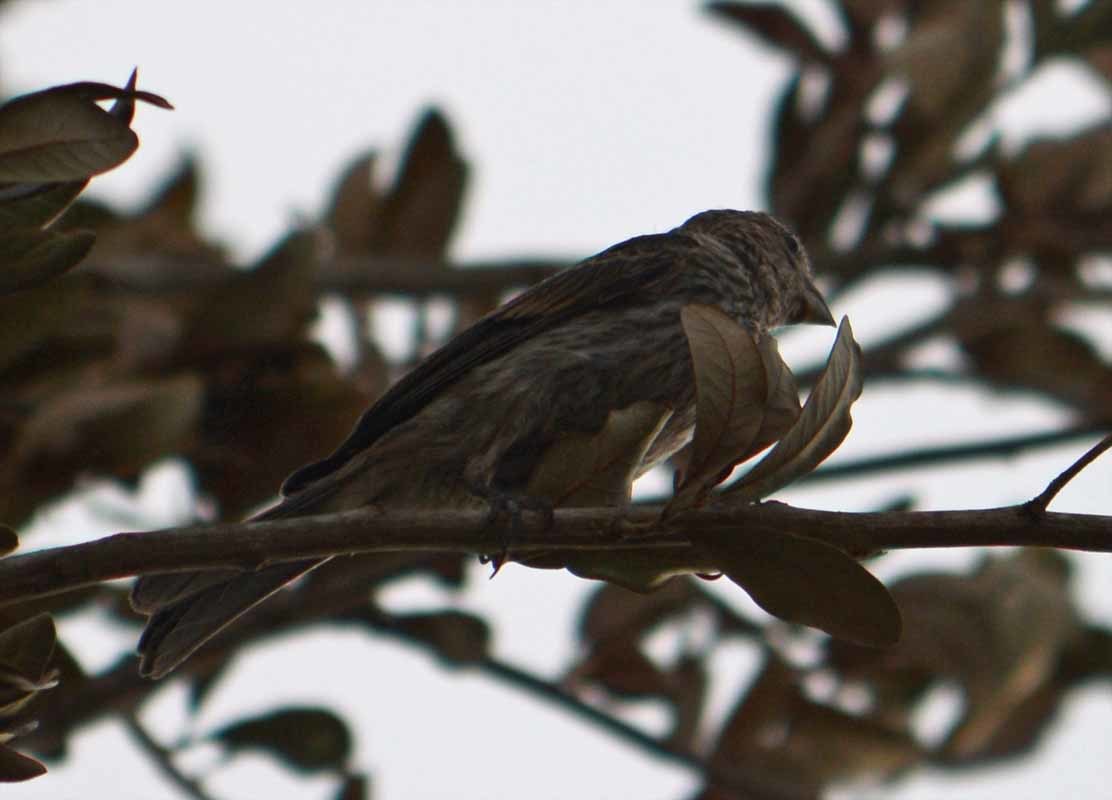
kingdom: Animalia
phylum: Chordata
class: Aves
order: Passeriformes
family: Fringillidae
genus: Haemorhous
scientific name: Haemorhous mexicanus
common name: House finch
